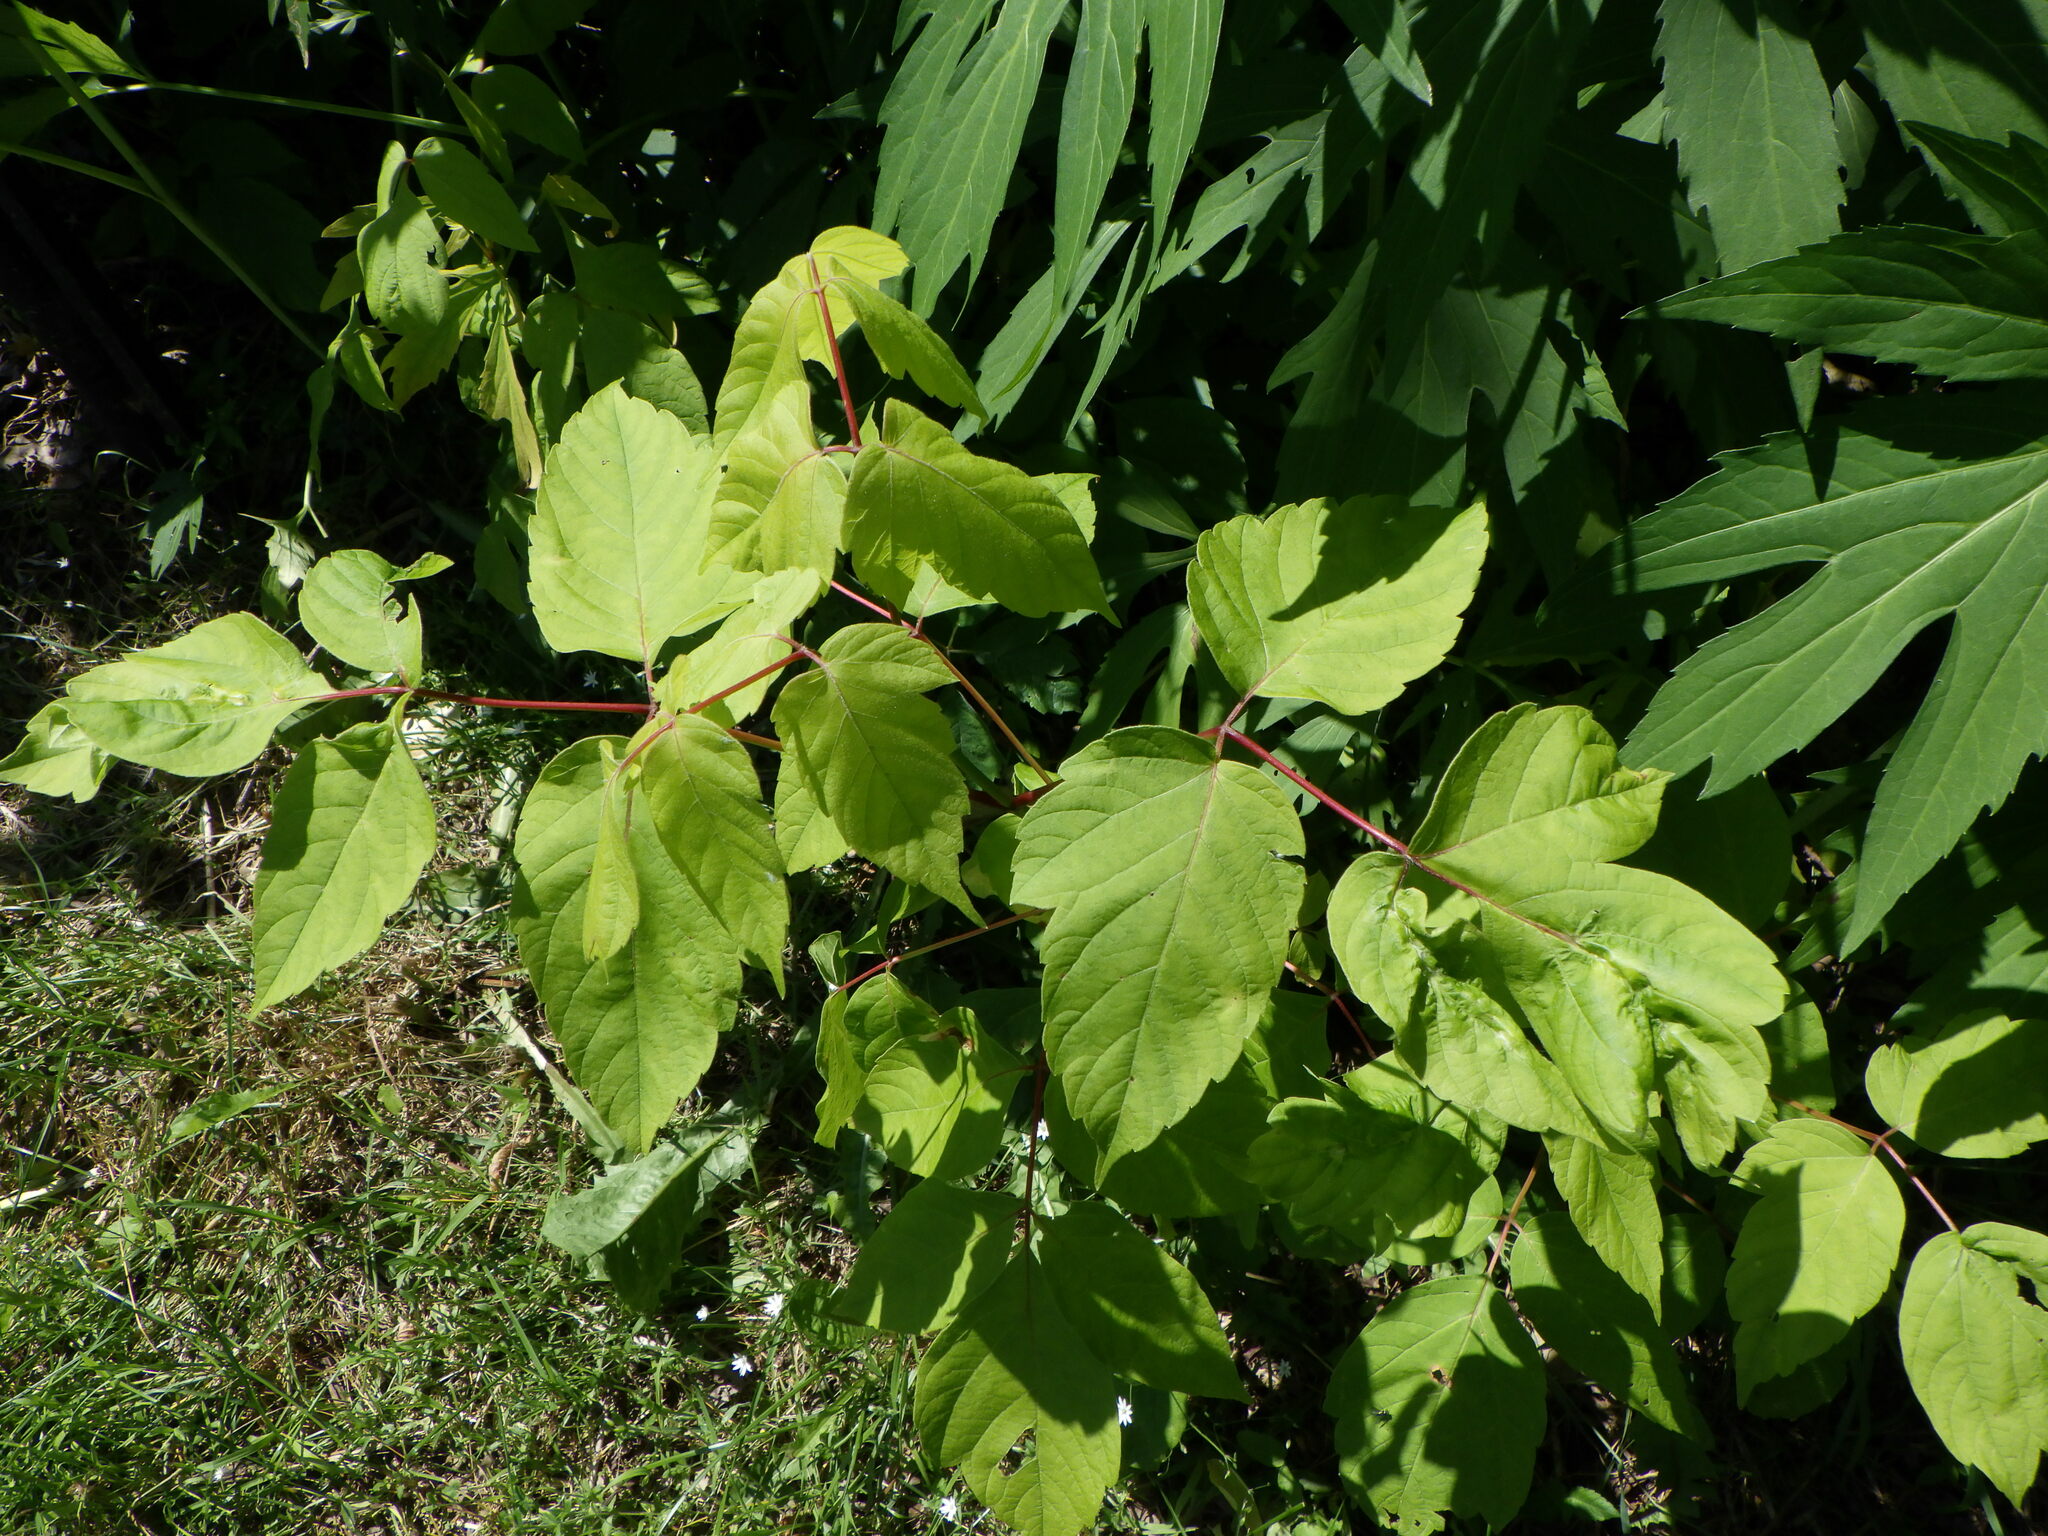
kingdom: Plantae
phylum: Tracheophyta
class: Magnoliopsida
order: Sapindales
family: Sapindaceae
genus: Acer
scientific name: Acer negundo
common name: Ashleaf maple
